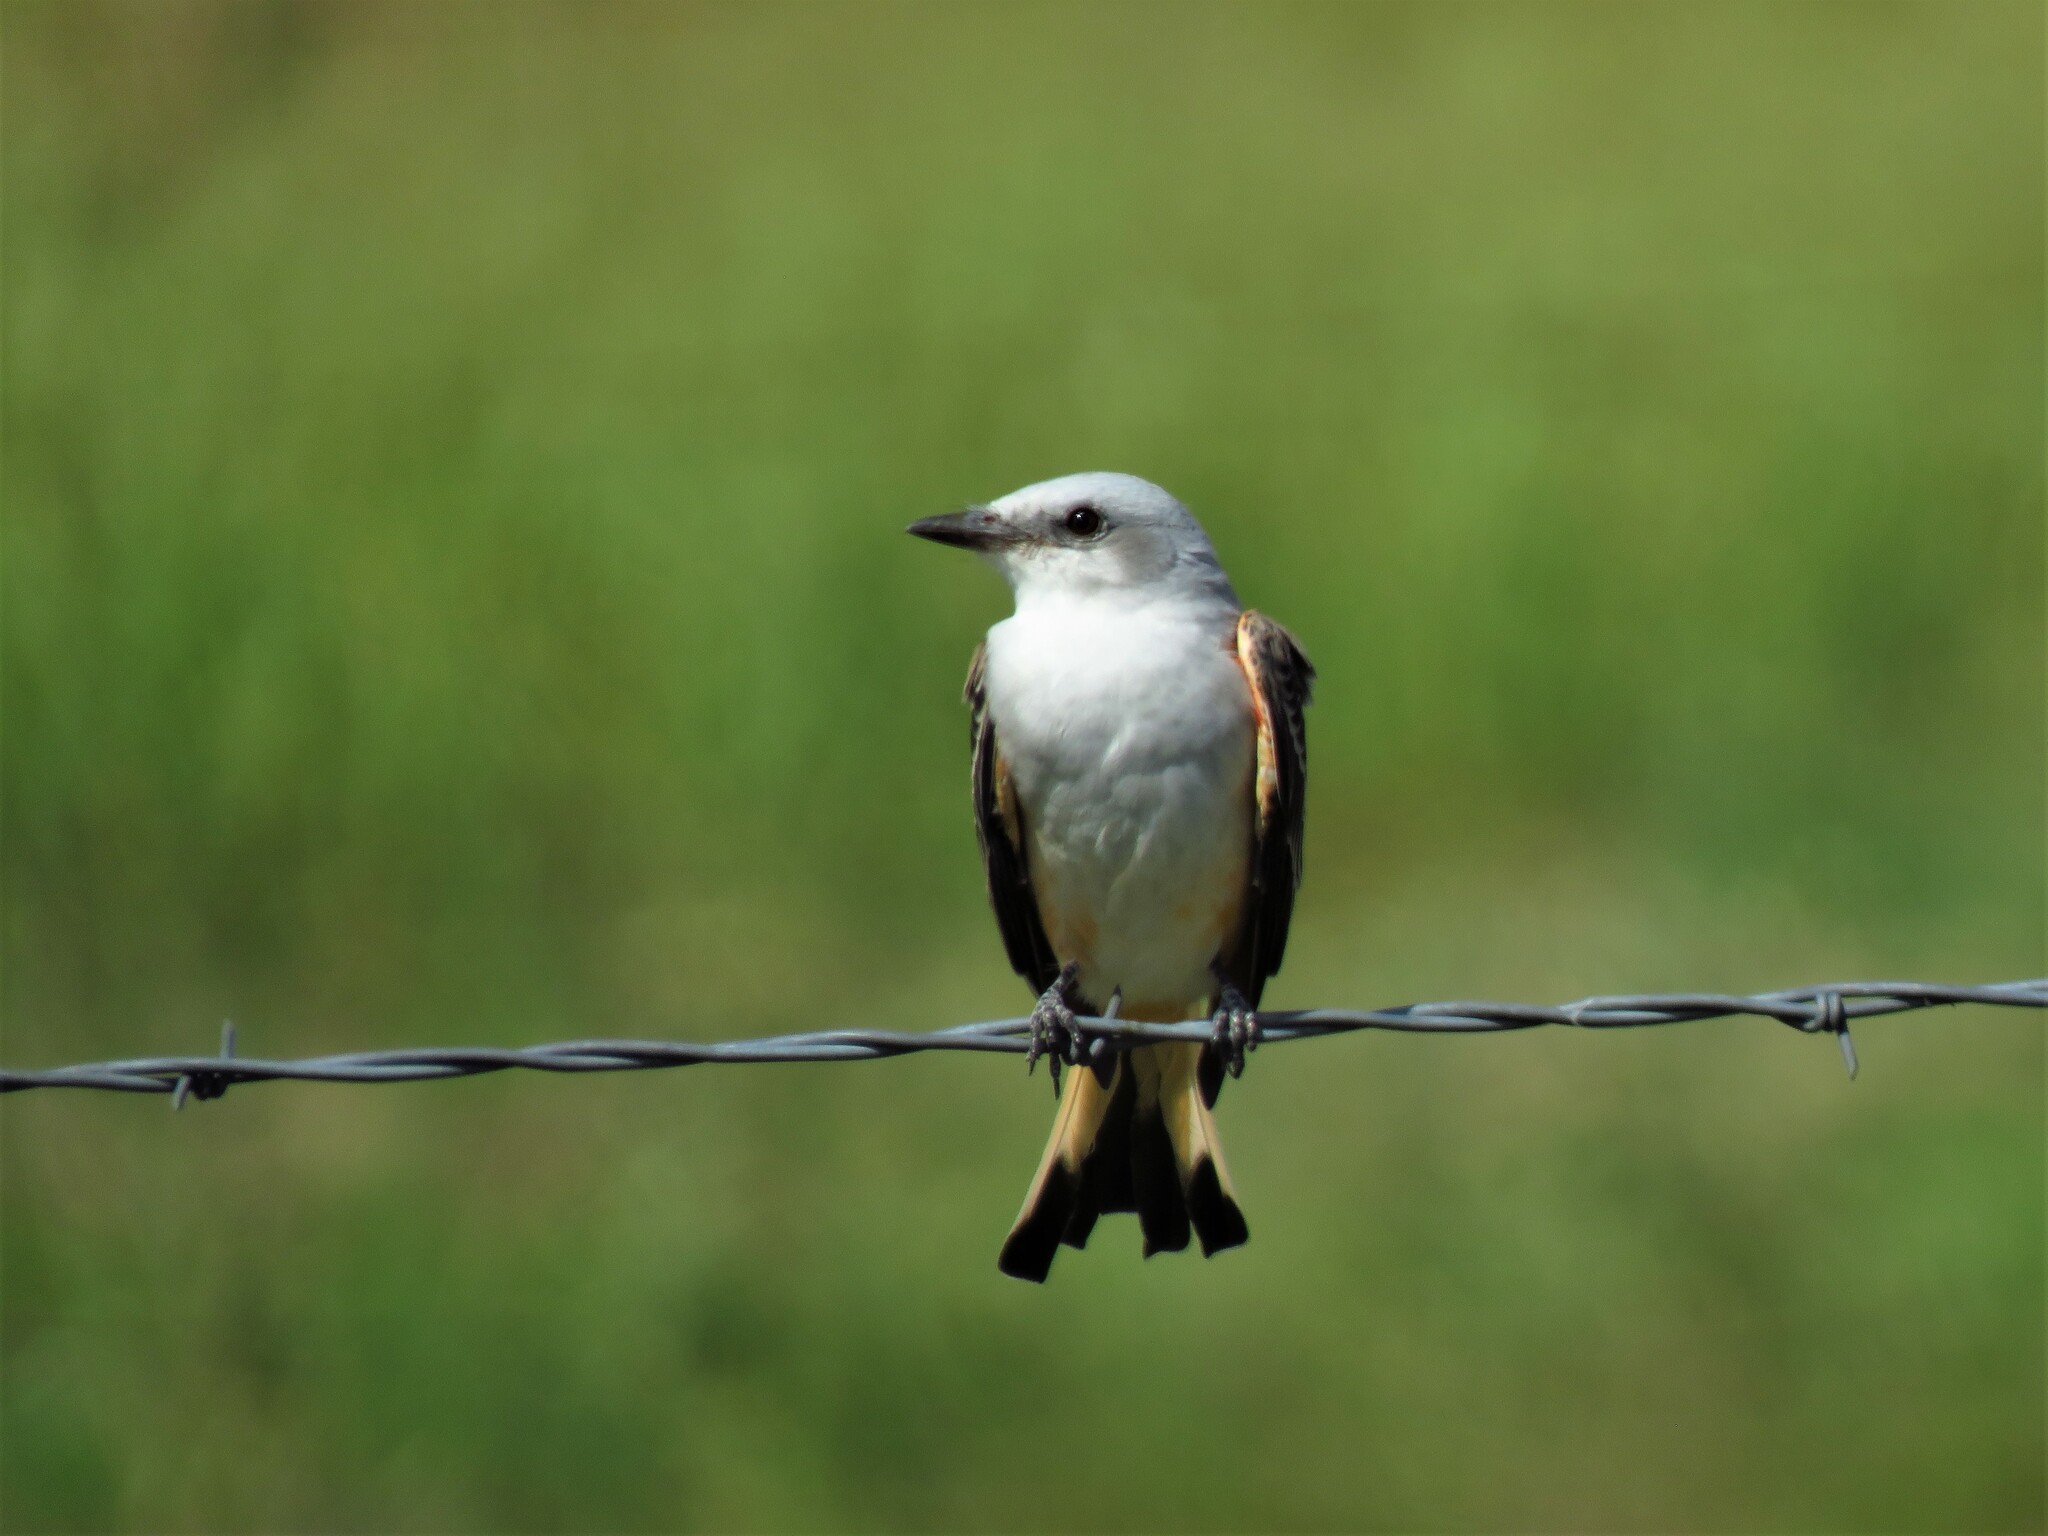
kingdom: Animalia
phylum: Chordata
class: Aves
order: Passeriformes
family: Tyrannidae
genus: Tyrannus
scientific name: Tyrannus forficatus
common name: Scissor-tailed flycatcher
